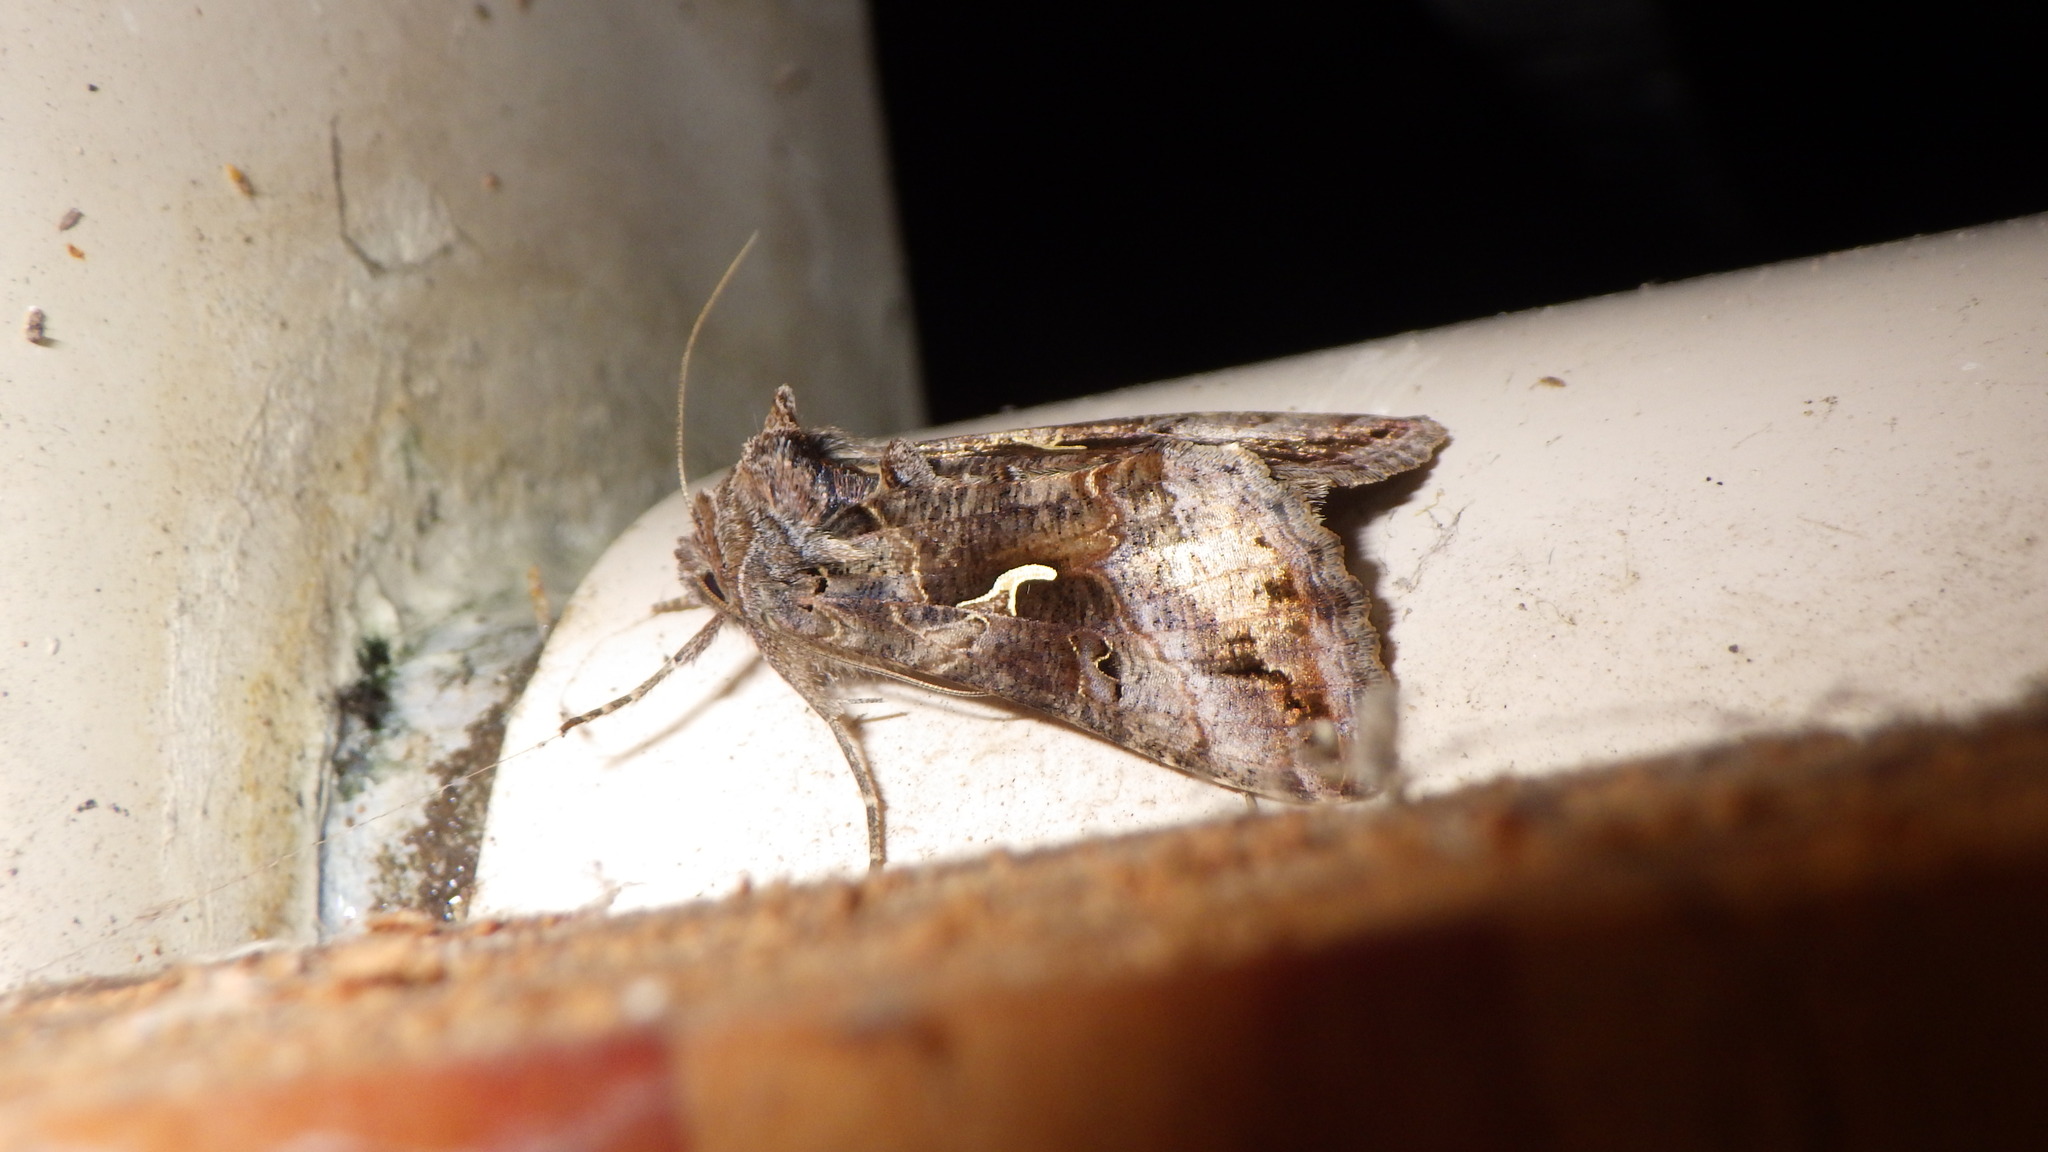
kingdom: Animalia
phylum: Arthropoda
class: Insecta
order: Lepidoptera
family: Noctuidae
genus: Autographa
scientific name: Autographa gamma
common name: Silver y
